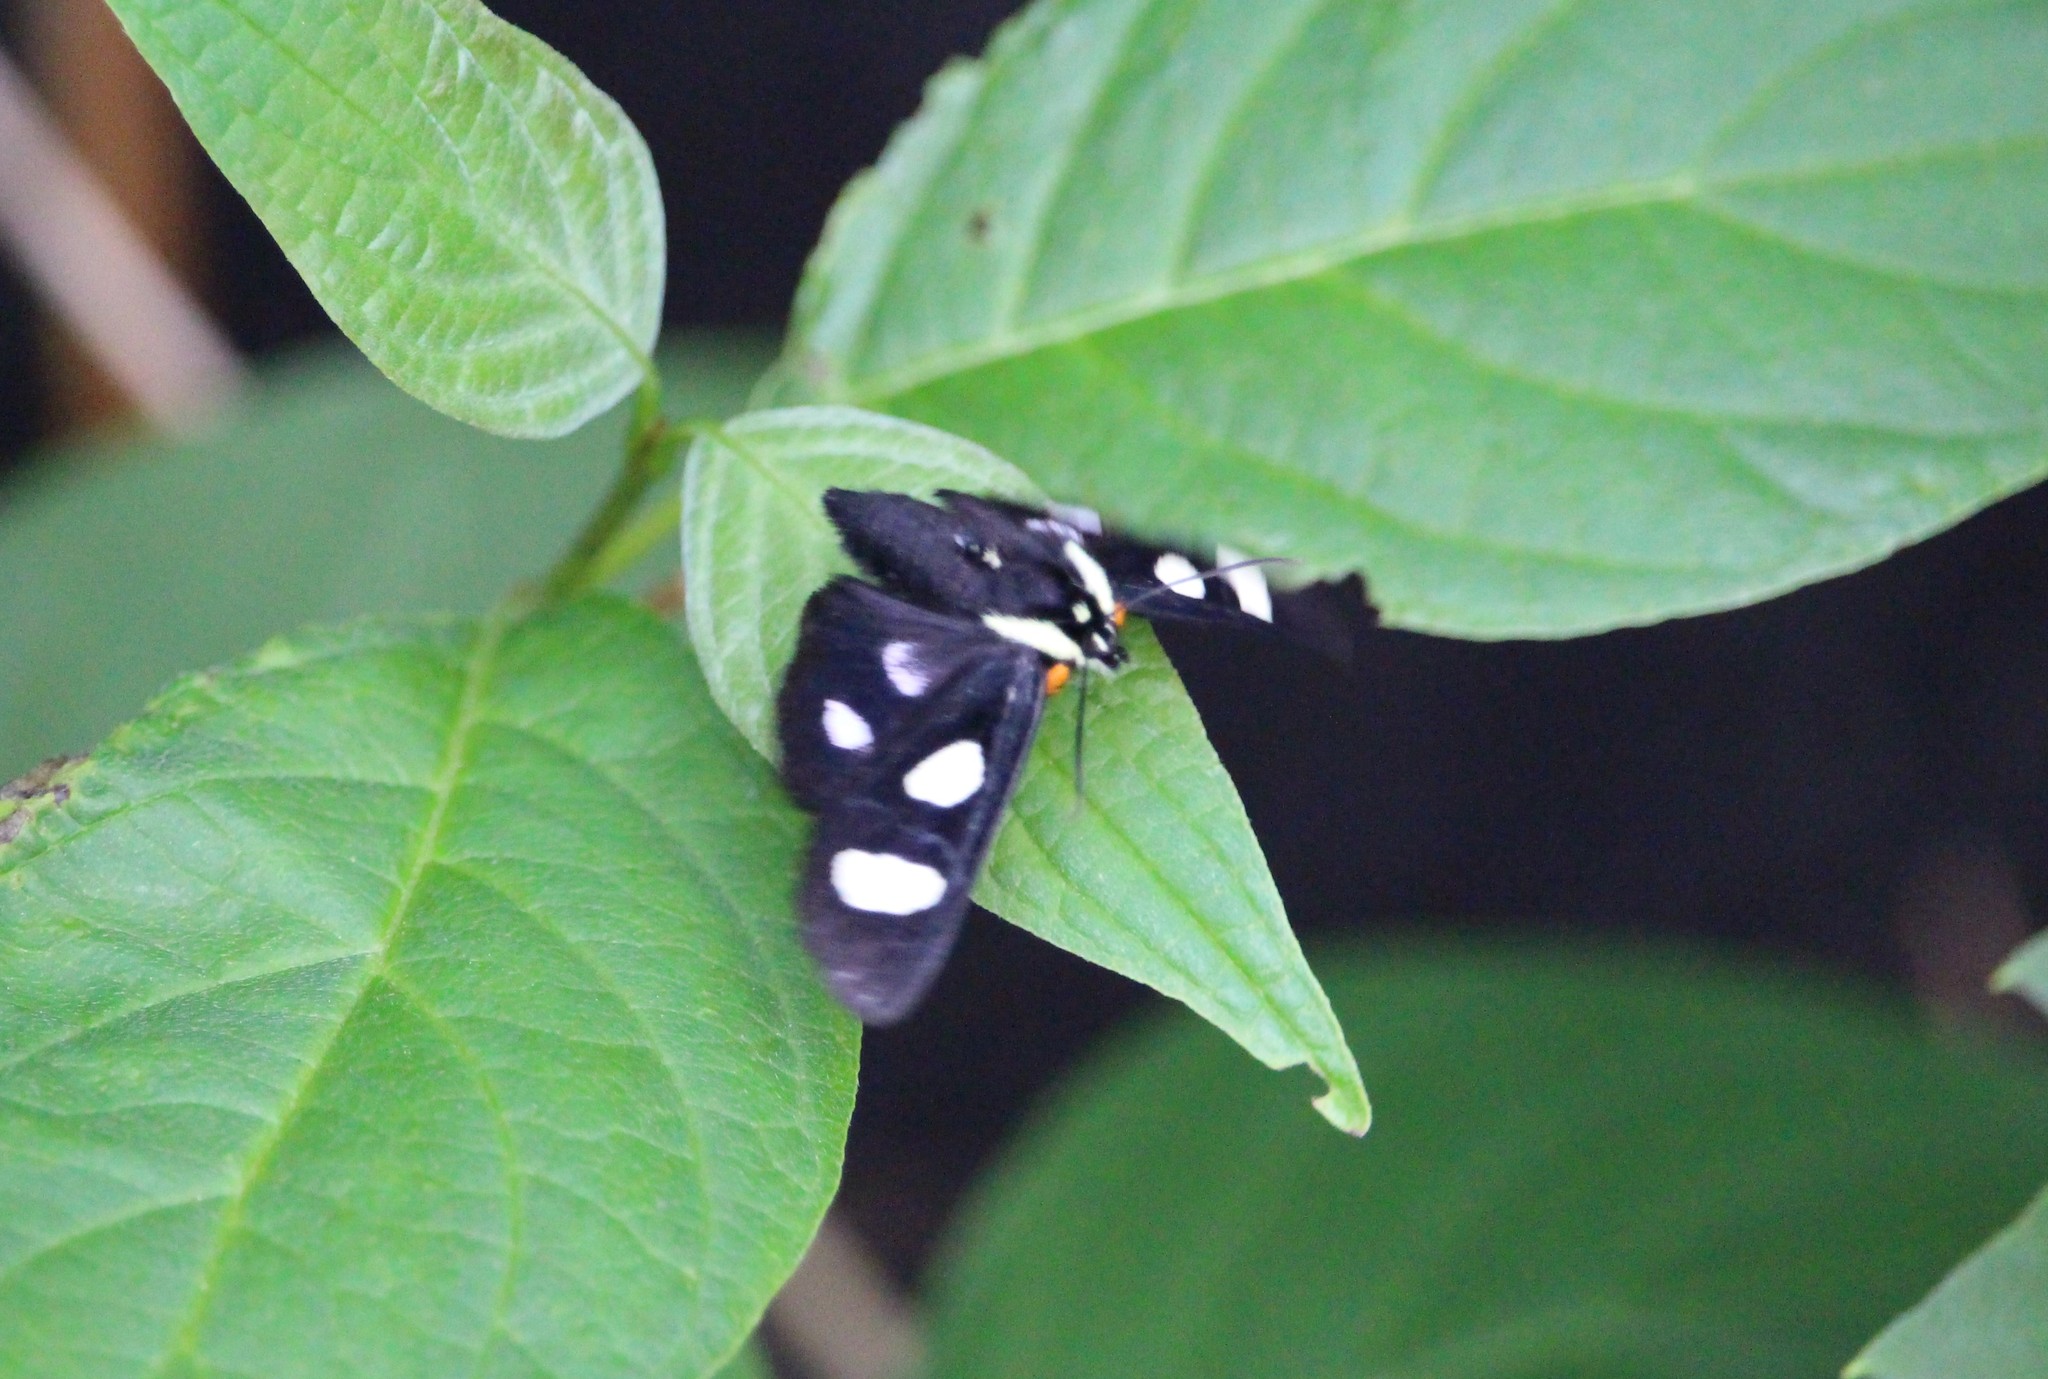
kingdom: Animalia
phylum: Arthropoda
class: Insecta
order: Lepidoptera
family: Noctuidae
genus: Alypia
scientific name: Alypia octomaculata
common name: Eight-spotted forester
